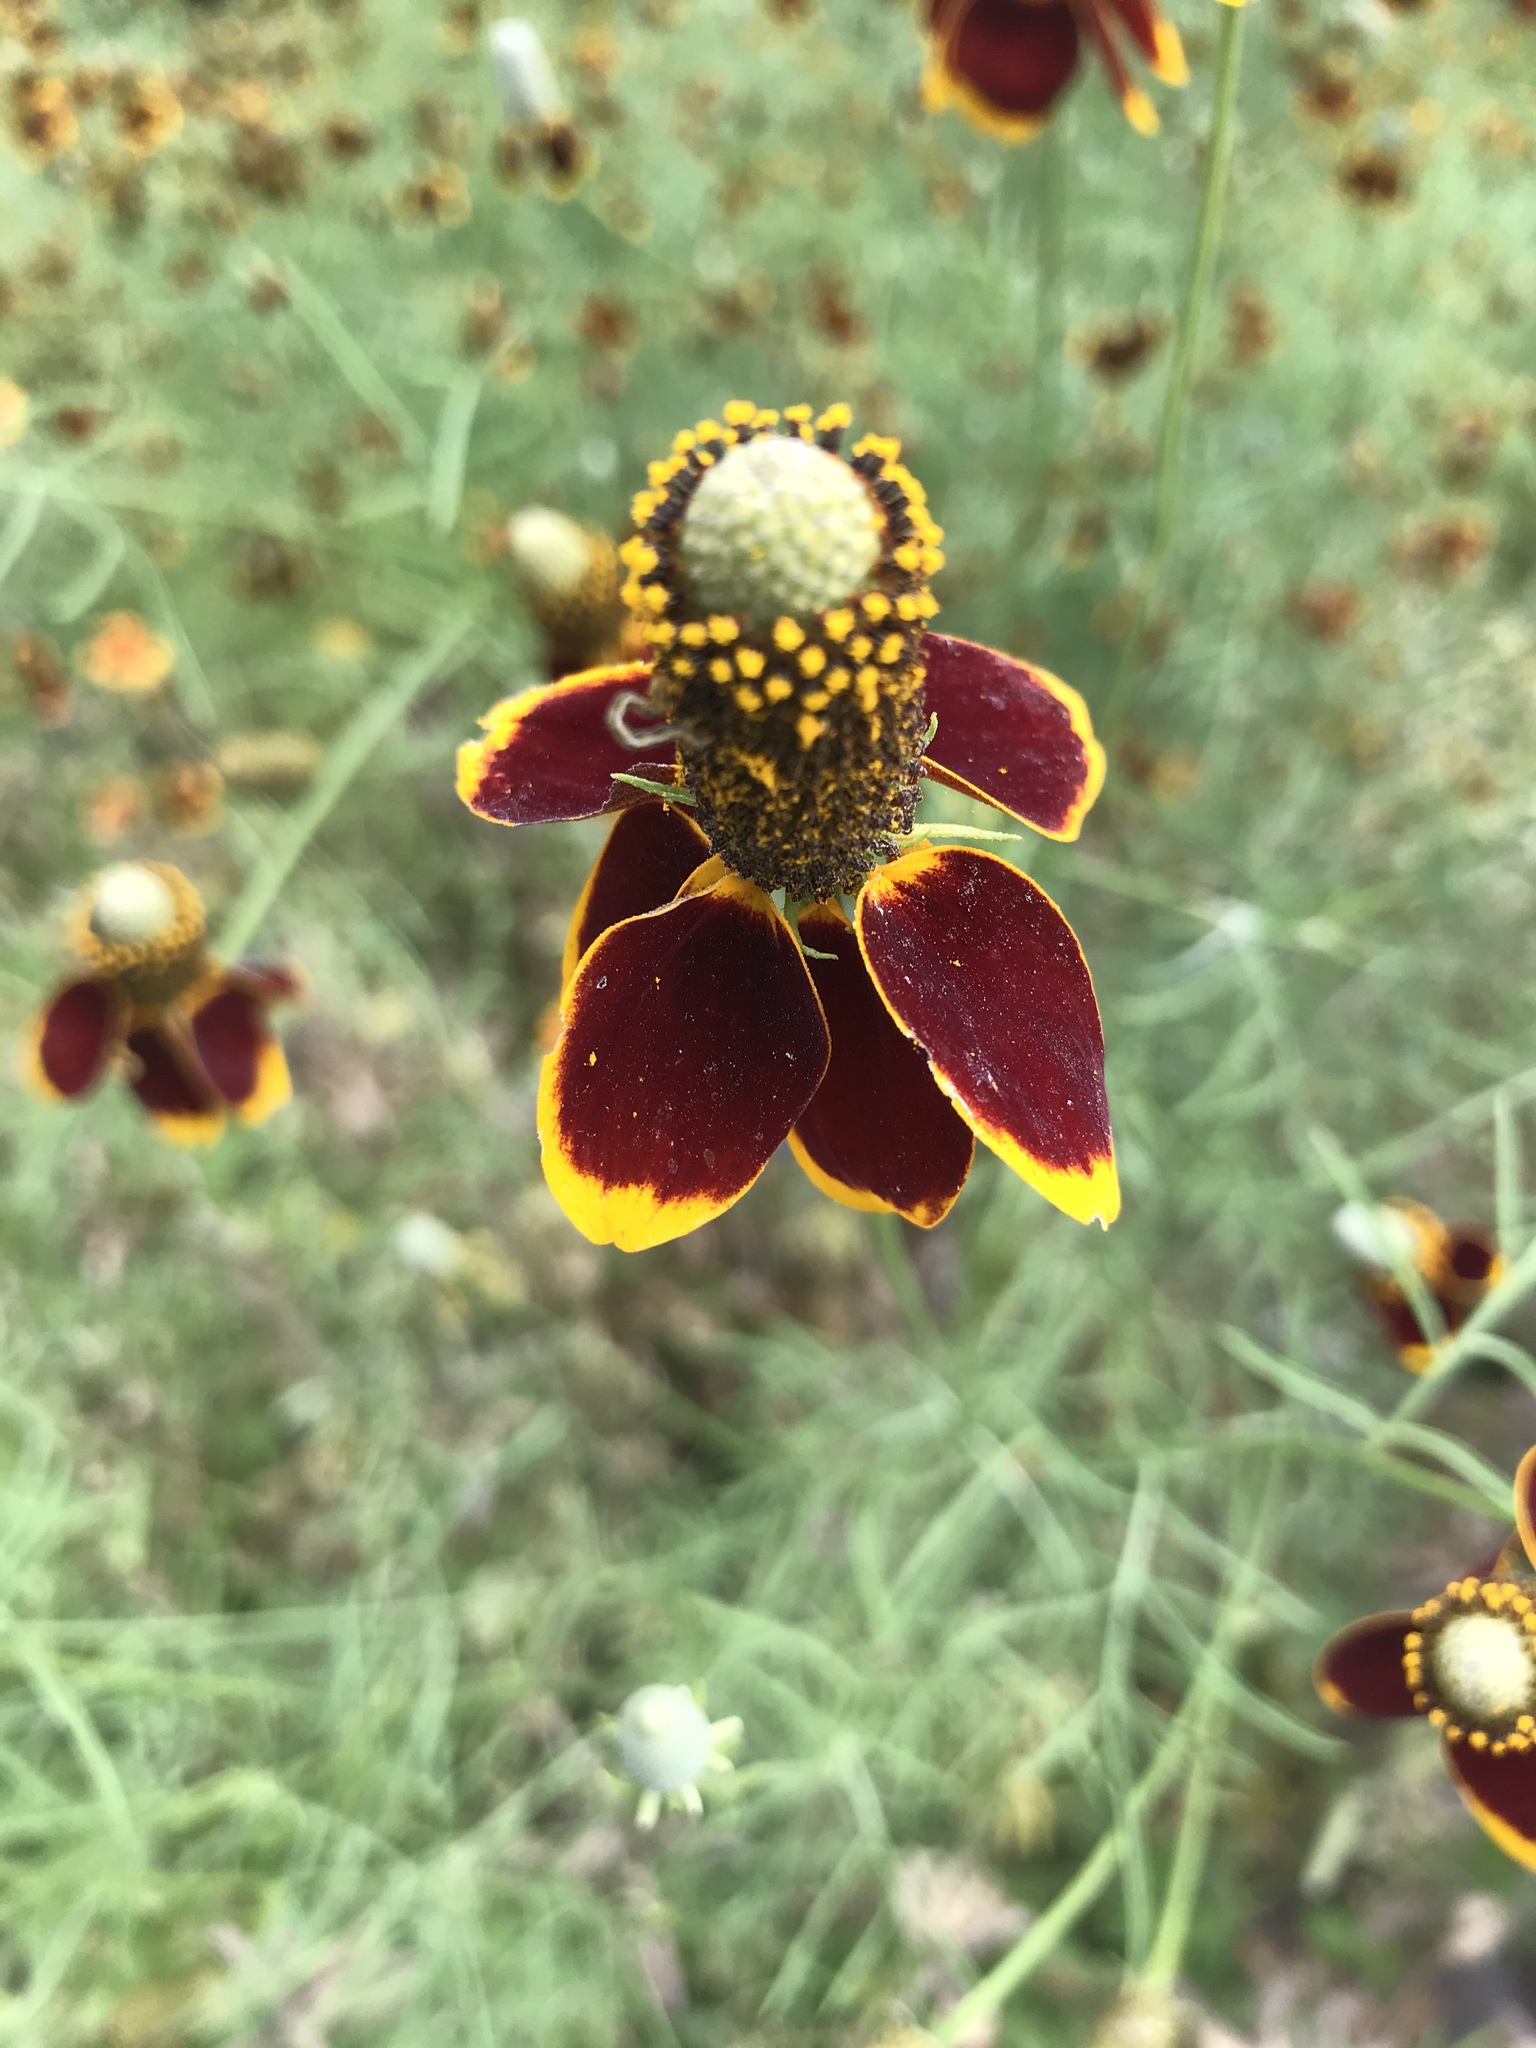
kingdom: Plantae
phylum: Tracheophyta
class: Magnoliopsida
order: Asterales
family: Asteraceae
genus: Ratibida
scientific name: Ratibida columnifera
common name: Prairie coneflower
